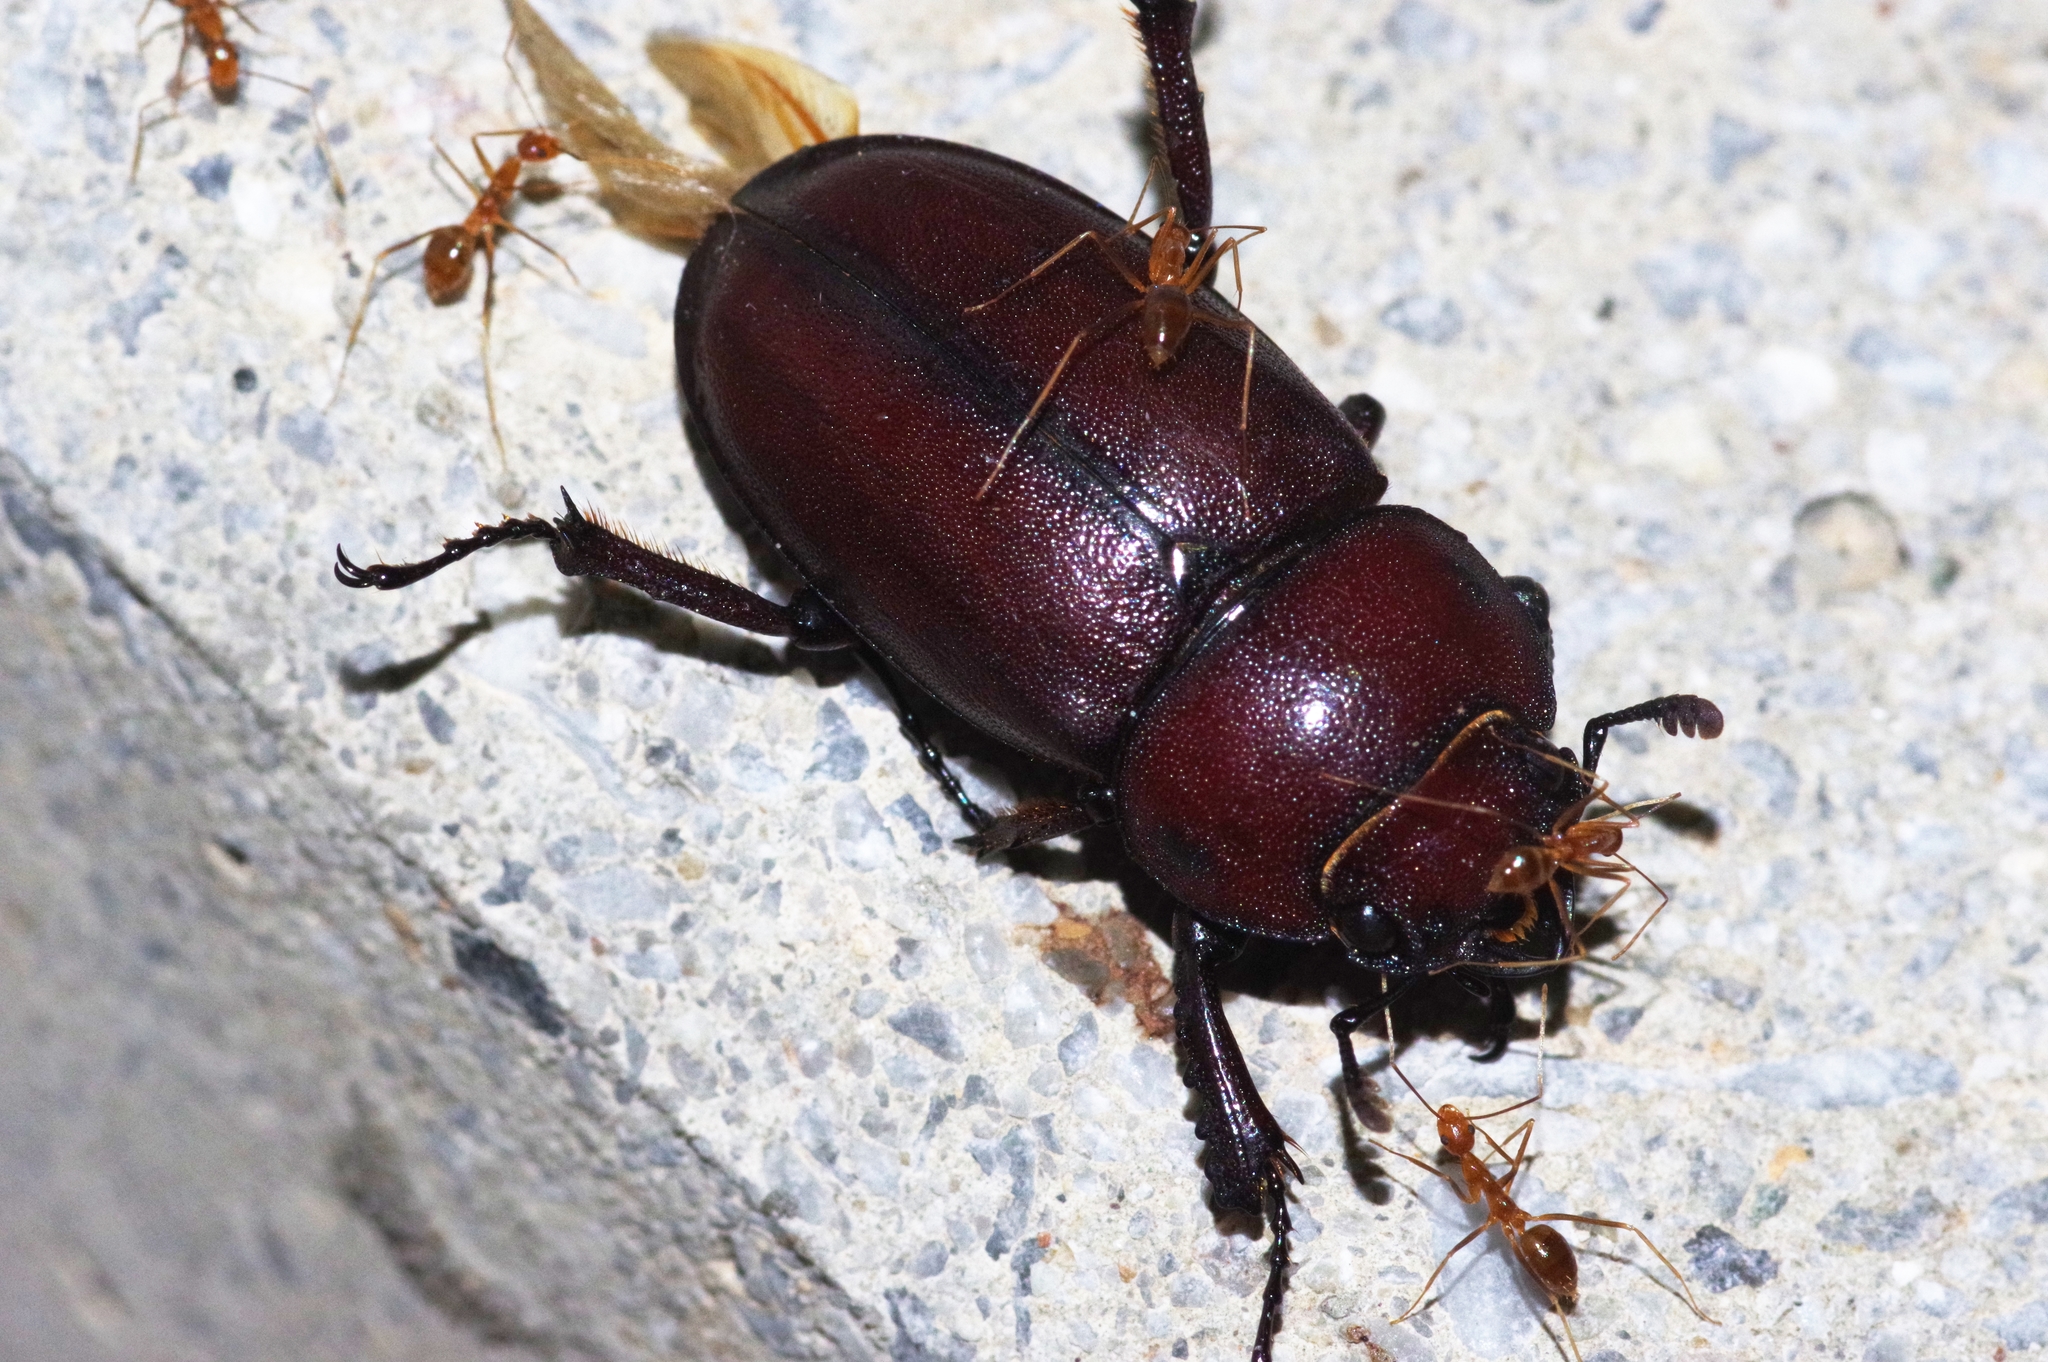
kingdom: Animalia
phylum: Arthropoda
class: Insecta
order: Hymenoptera
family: Formicidae
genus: Anoplolepis
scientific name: Anoplolepis gracilipes
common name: Ant
